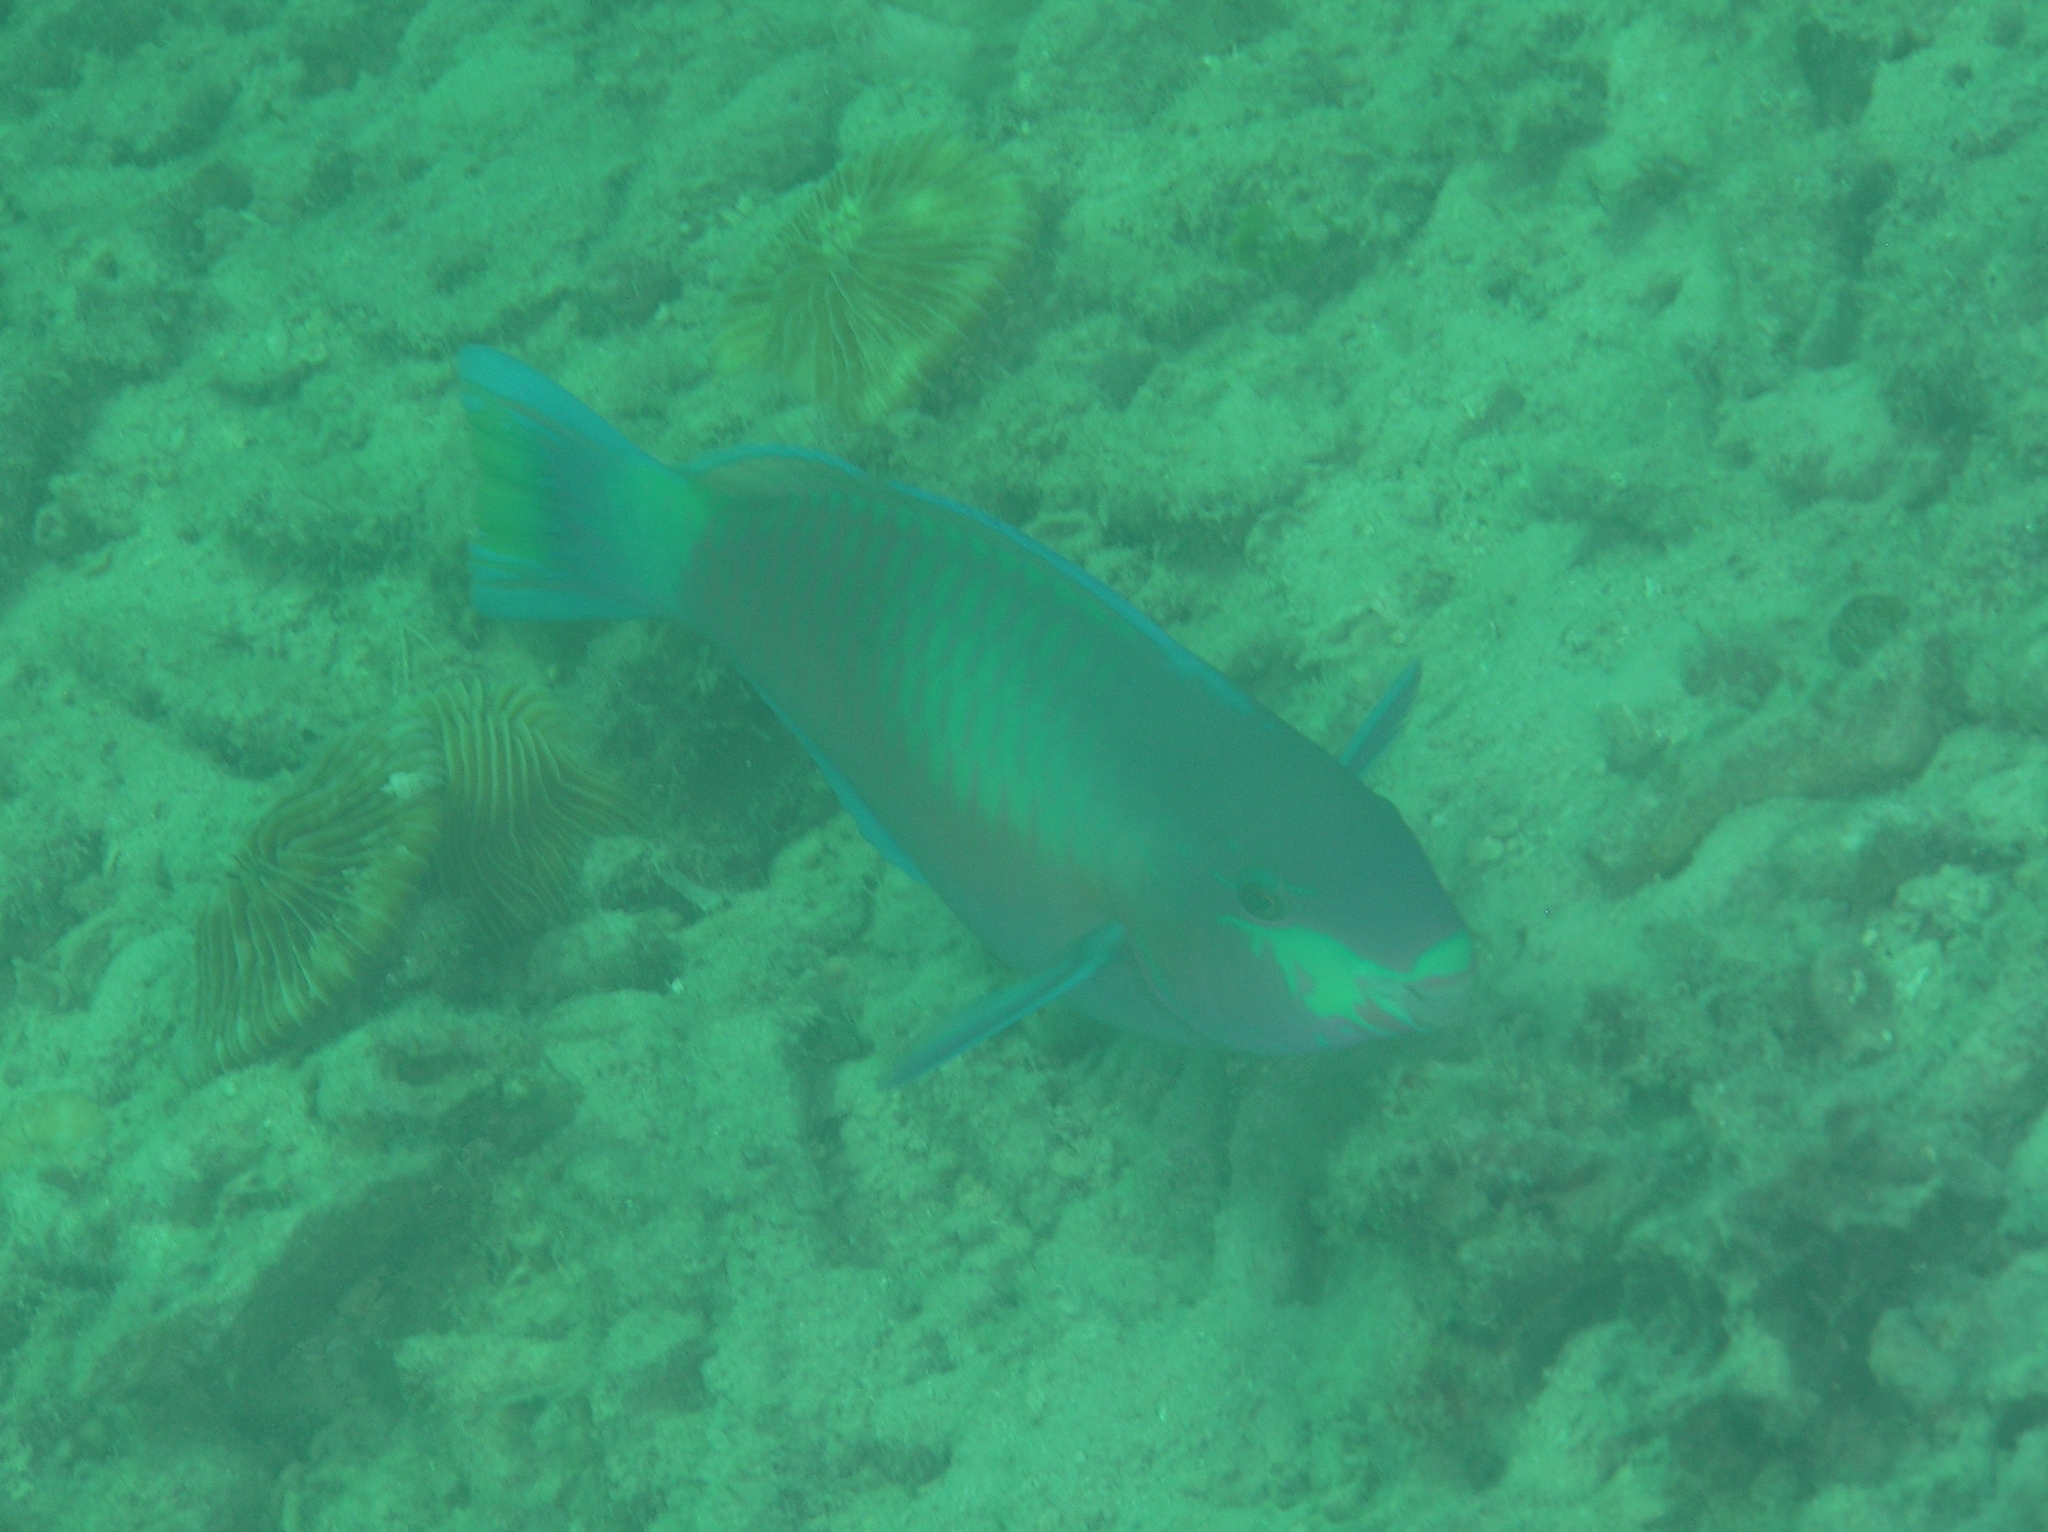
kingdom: Animalia
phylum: Chordata
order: Perciformes
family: Scaridae
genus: Scarus
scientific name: Scarus quoyi
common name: Quoy's parrotfish
